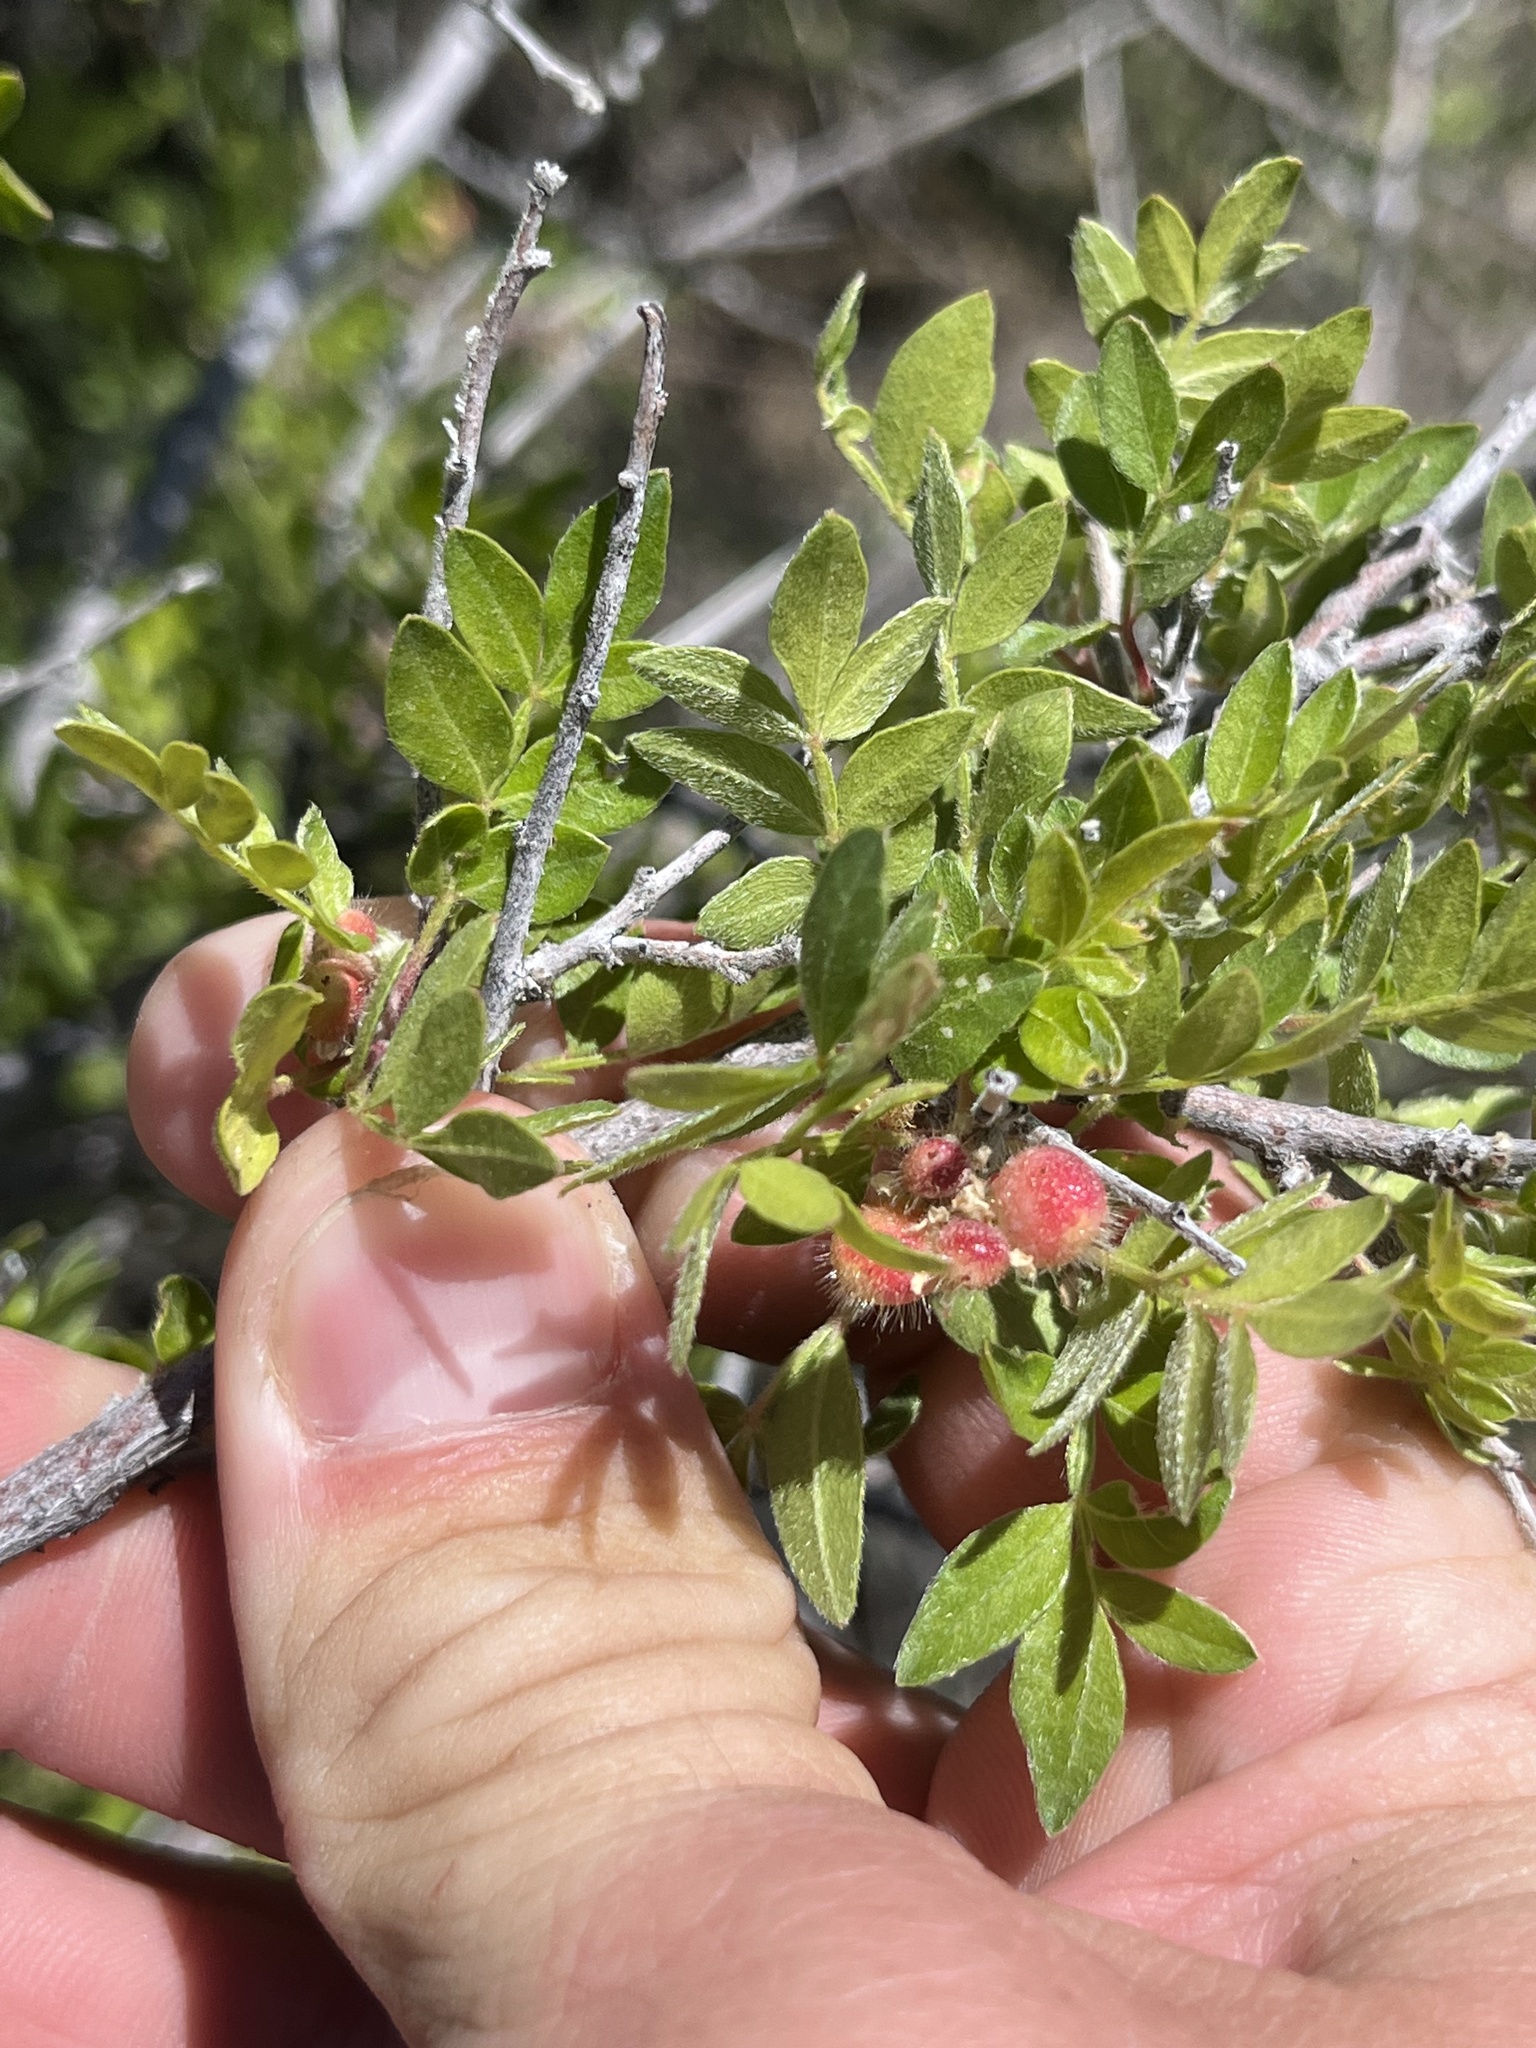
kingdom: Plantae
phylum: Tracheophyta
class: Magnoliopsida
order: Sapindales
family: Anacardiaceae
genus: Rhus
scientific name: Rhus microphylla
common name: Desert sumac
